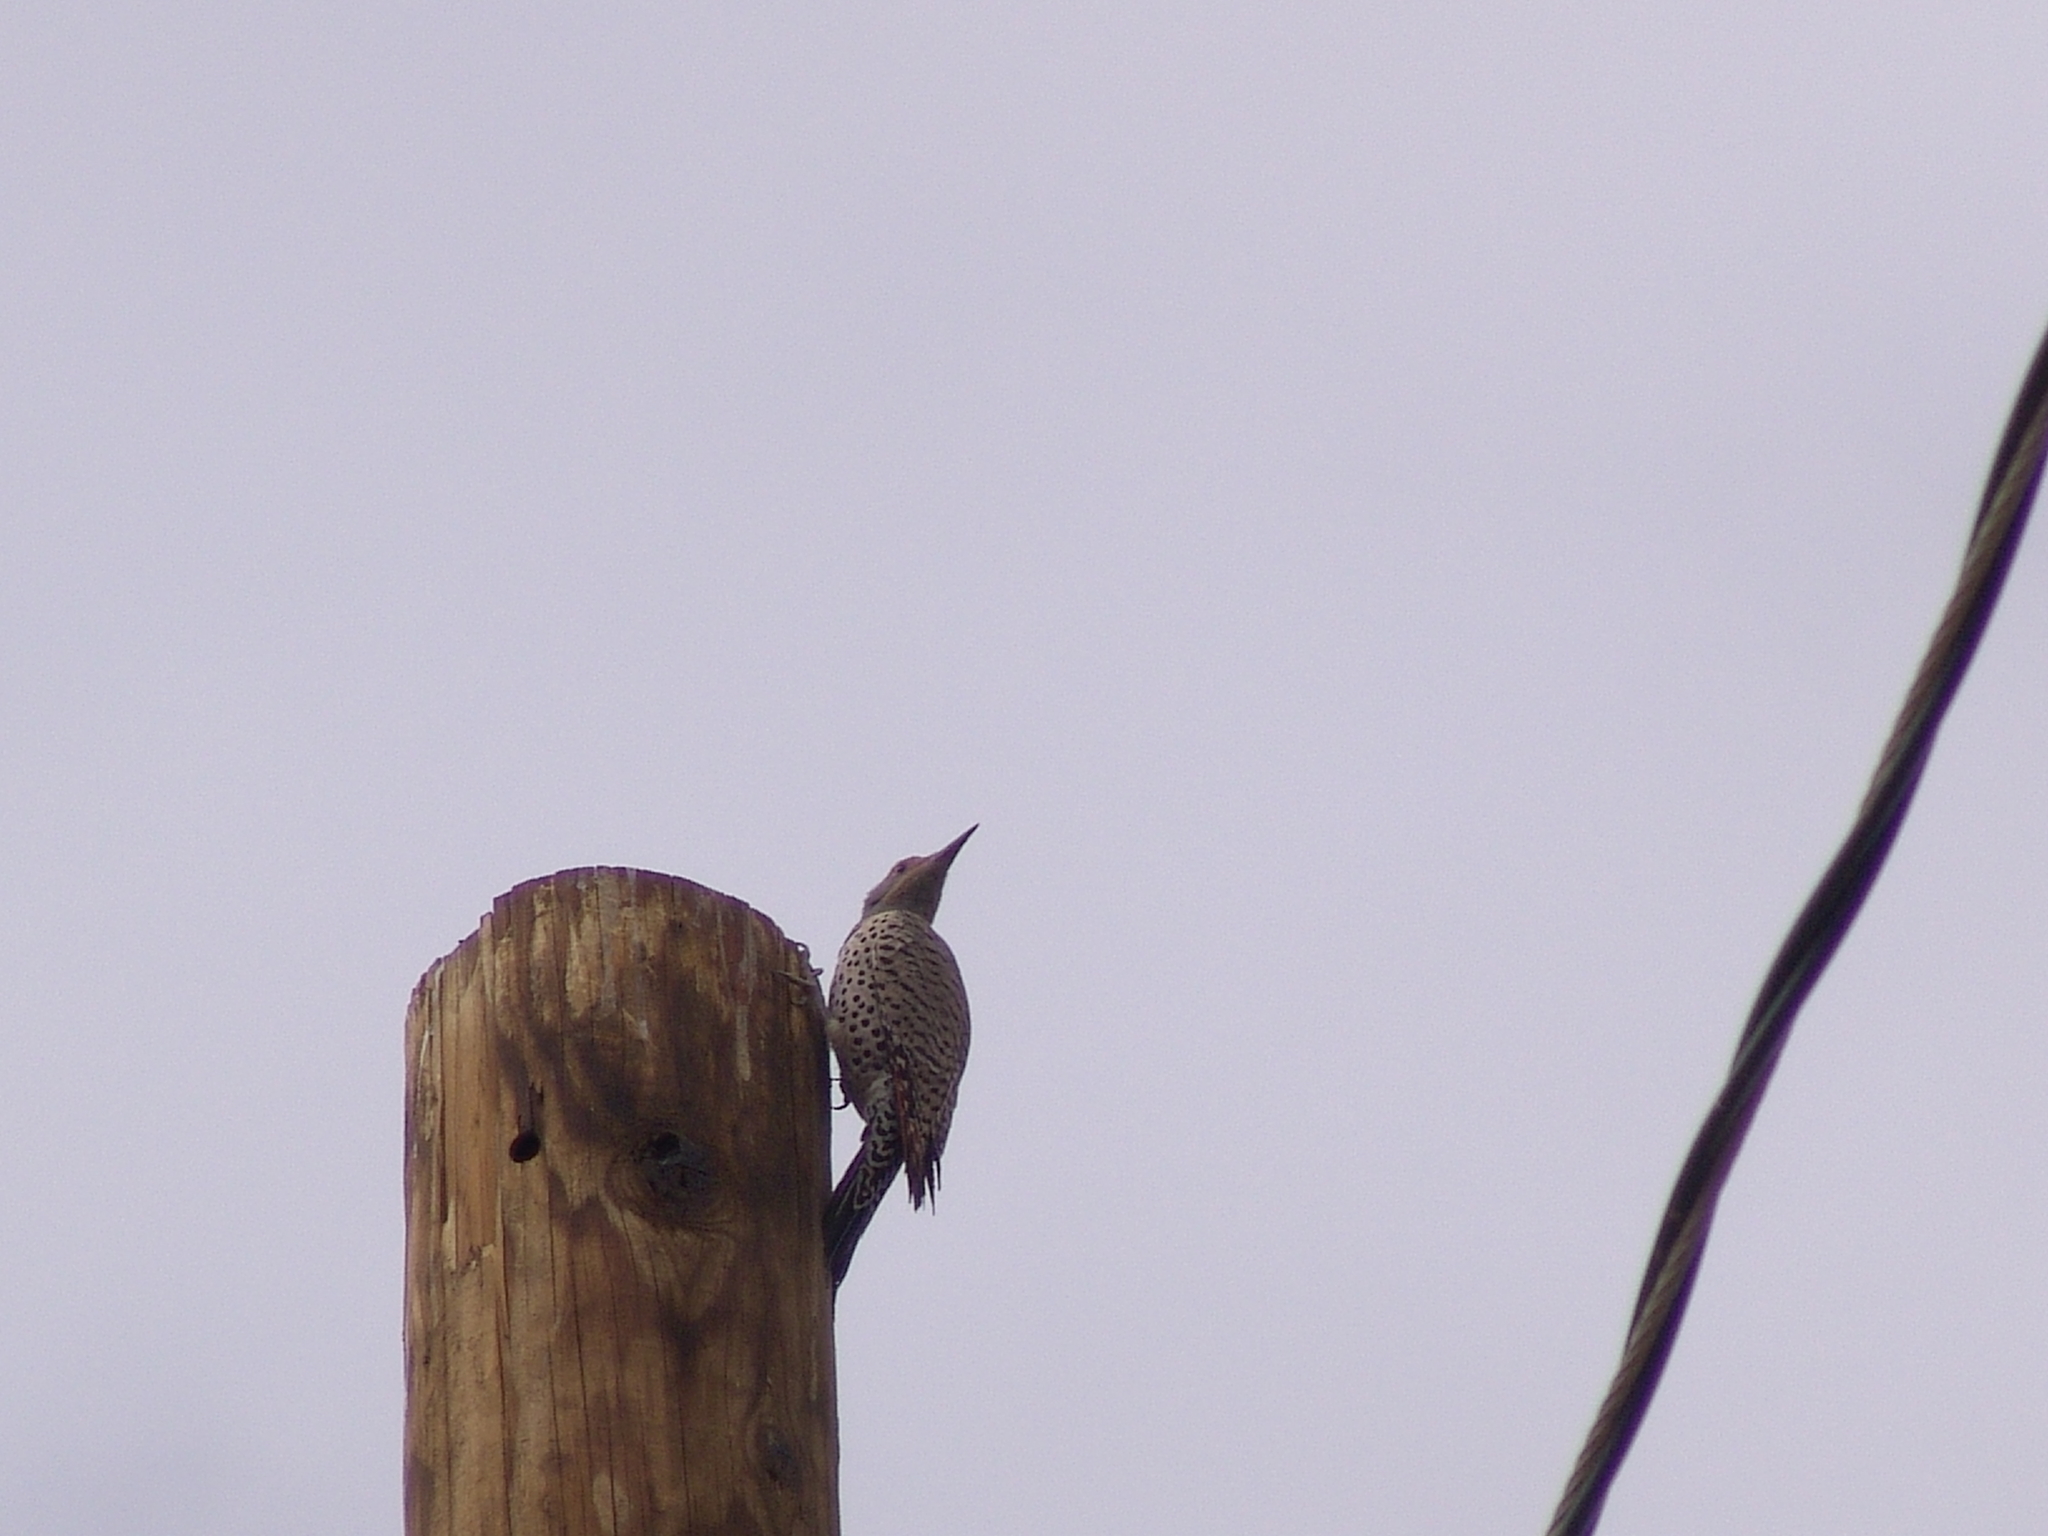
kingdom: Animalia
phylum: Chordata
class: Aves
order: Piciformes
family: Picidae
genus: Colaptes
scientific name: Colaptes auratus
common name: Northern flicker
